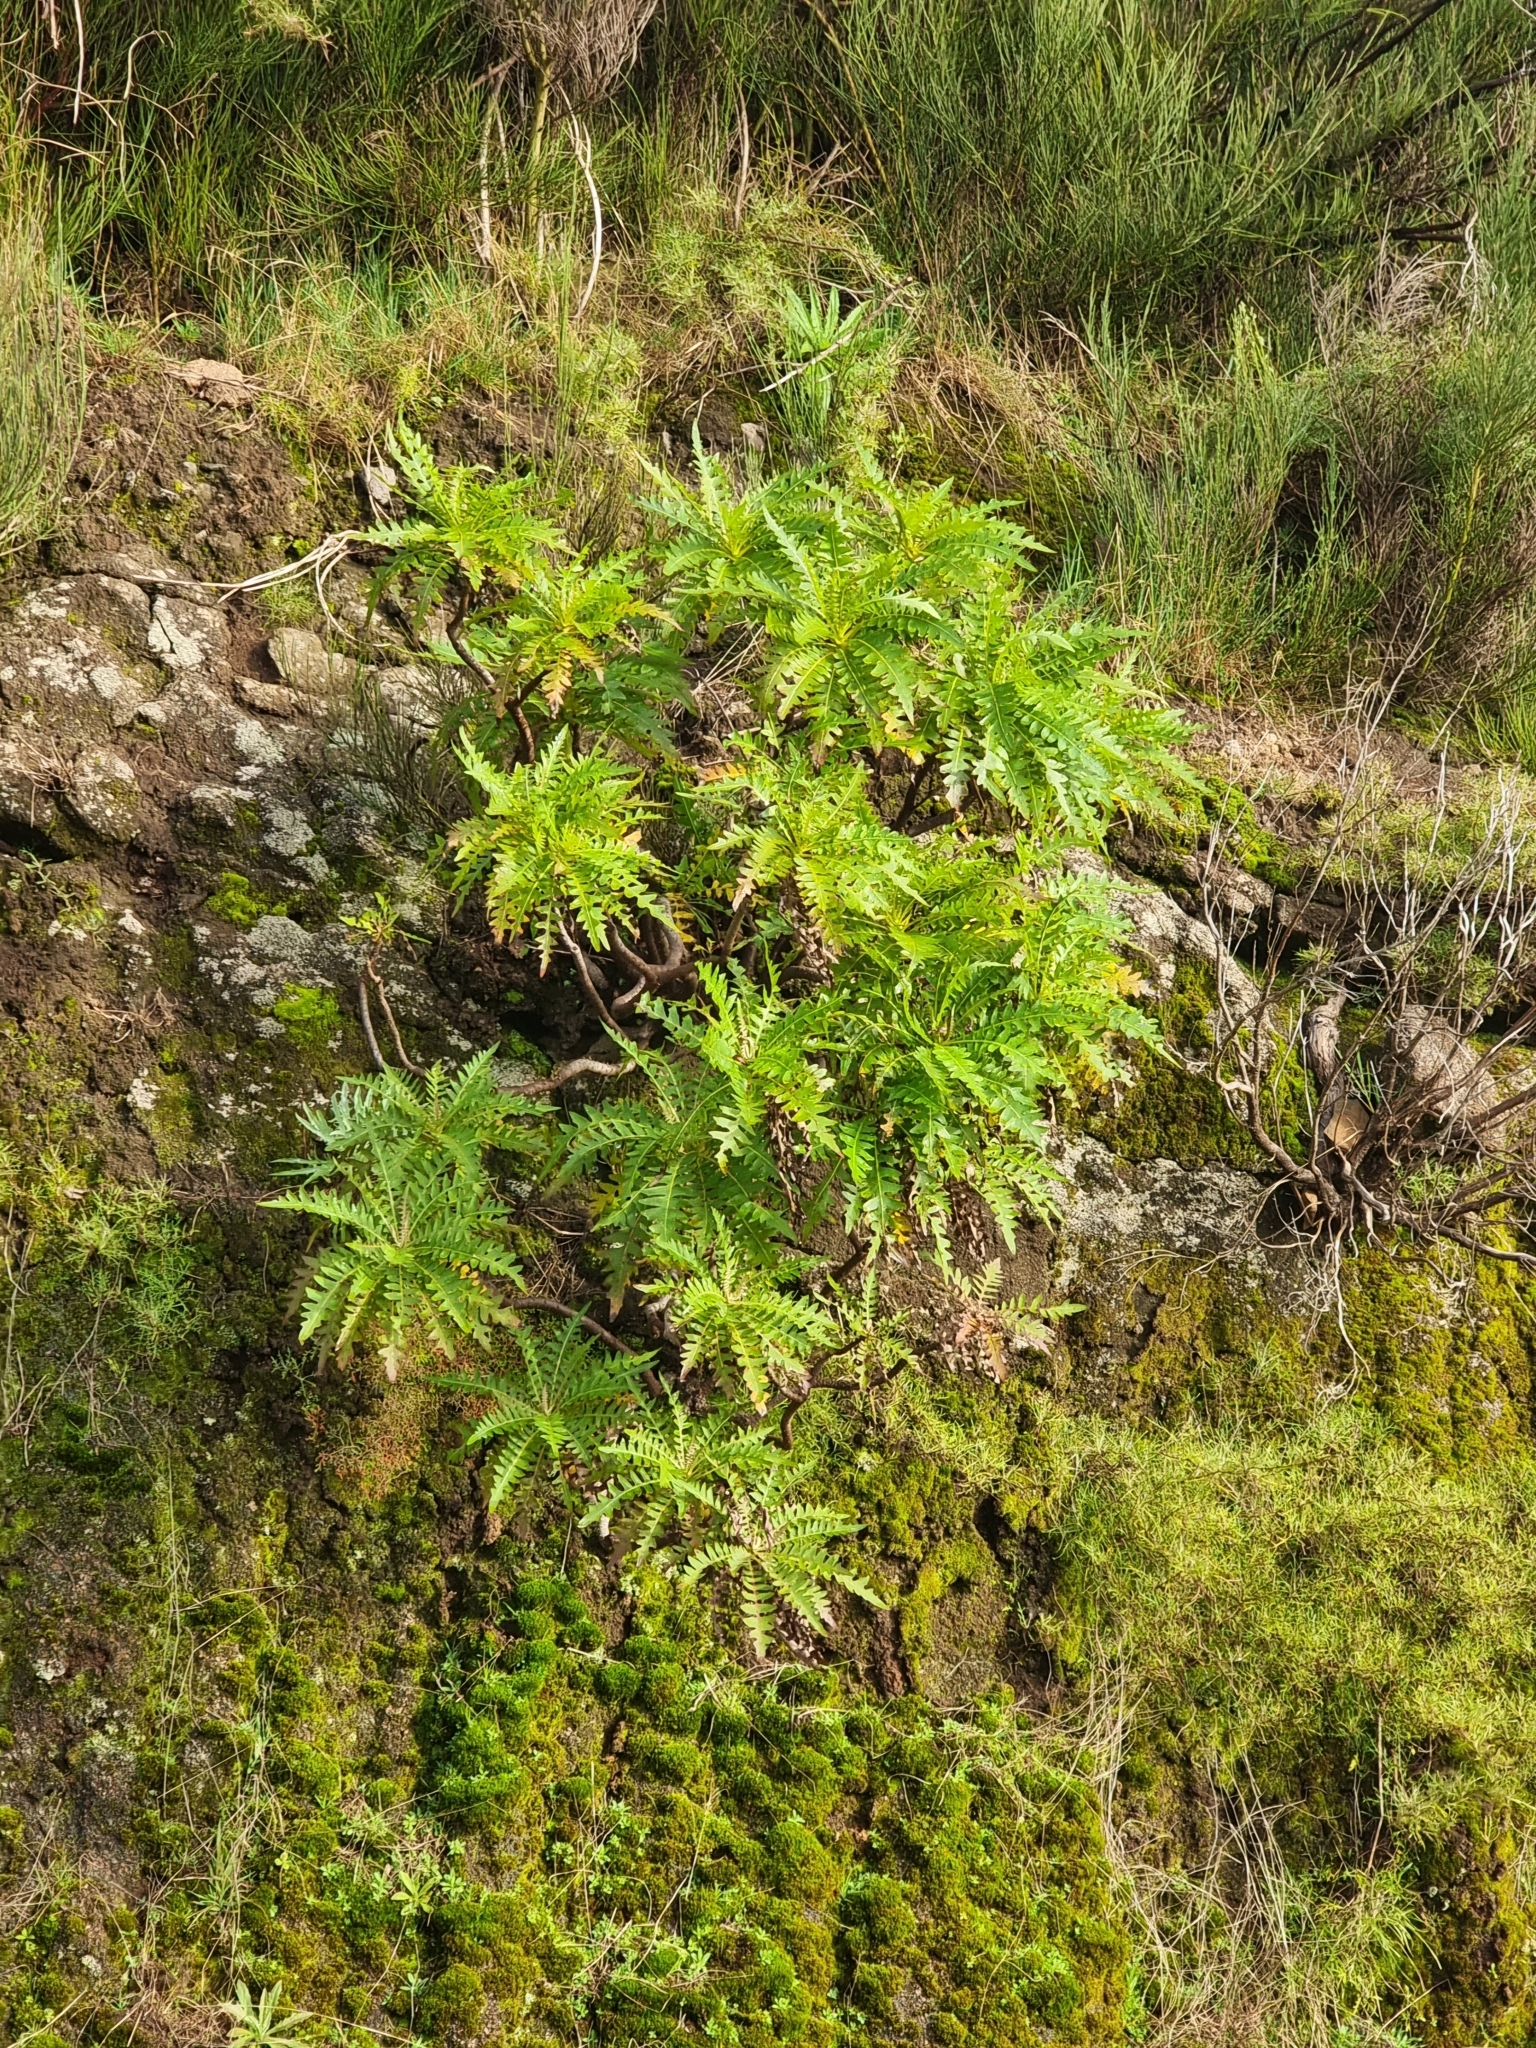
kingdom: Plantae
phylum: Tracheophyta
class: Magnoliopsida
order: Asterales
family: Asteraceae
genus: Sonchus
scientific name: Sonchus pinnatus
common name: Wing-leaved sow-thistle
